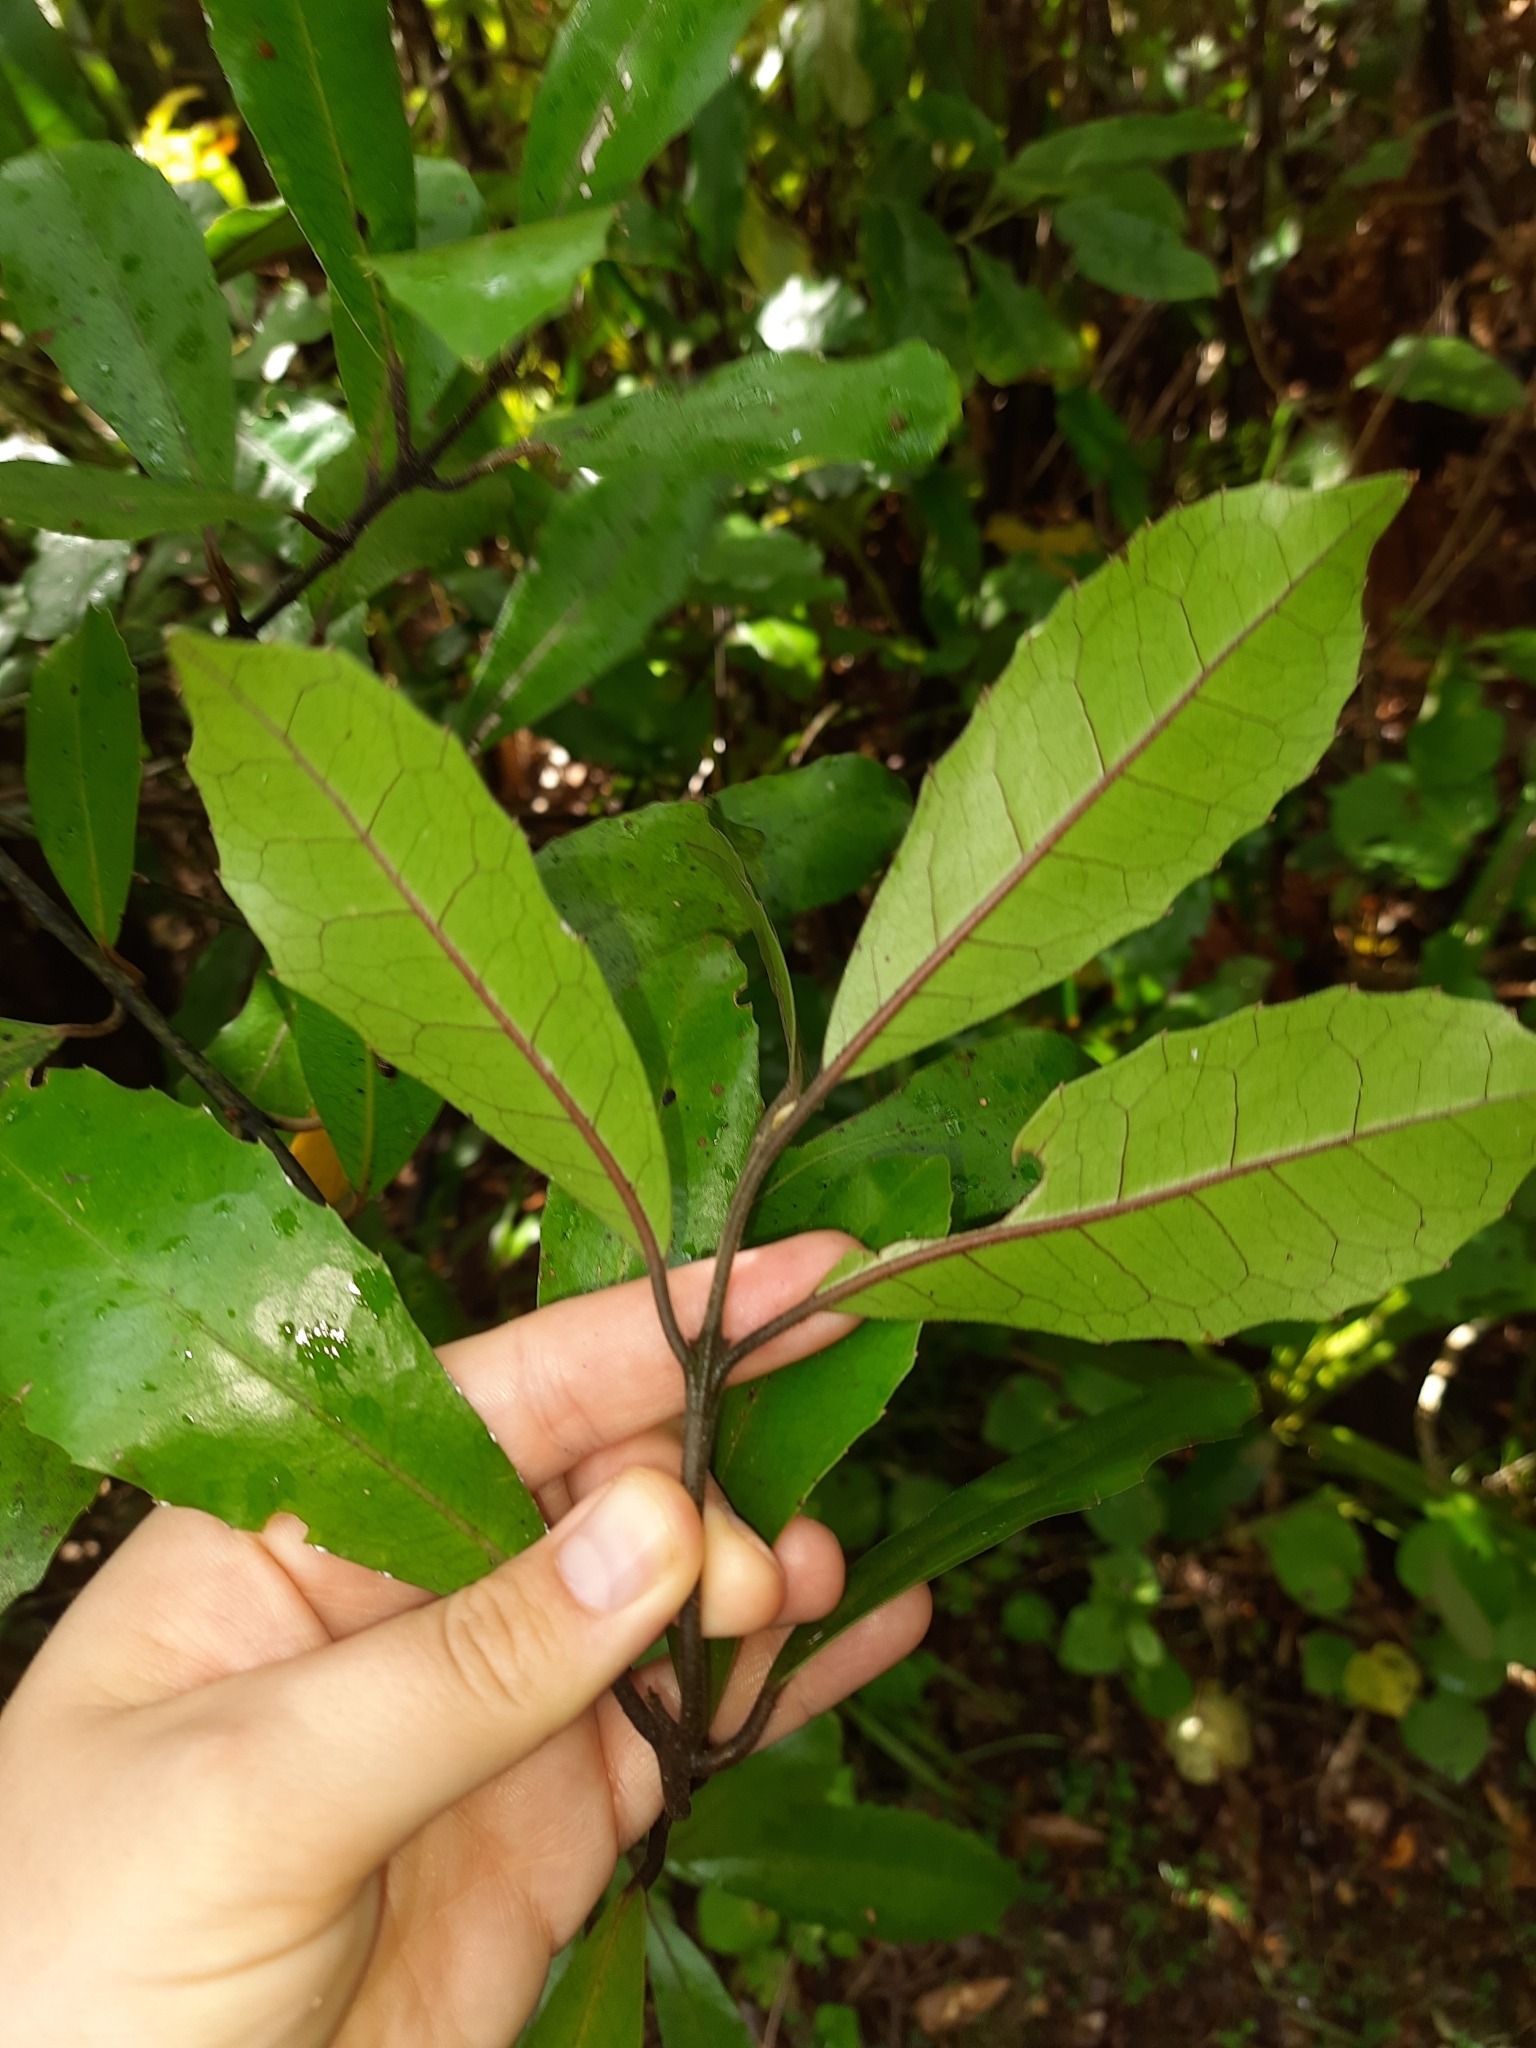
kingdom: Plantae
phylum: Tracheophyta
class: Magnoliopsida
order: Laurales
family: Monimiaceae
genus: Hedycarya
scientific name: Hedycarya arborea
